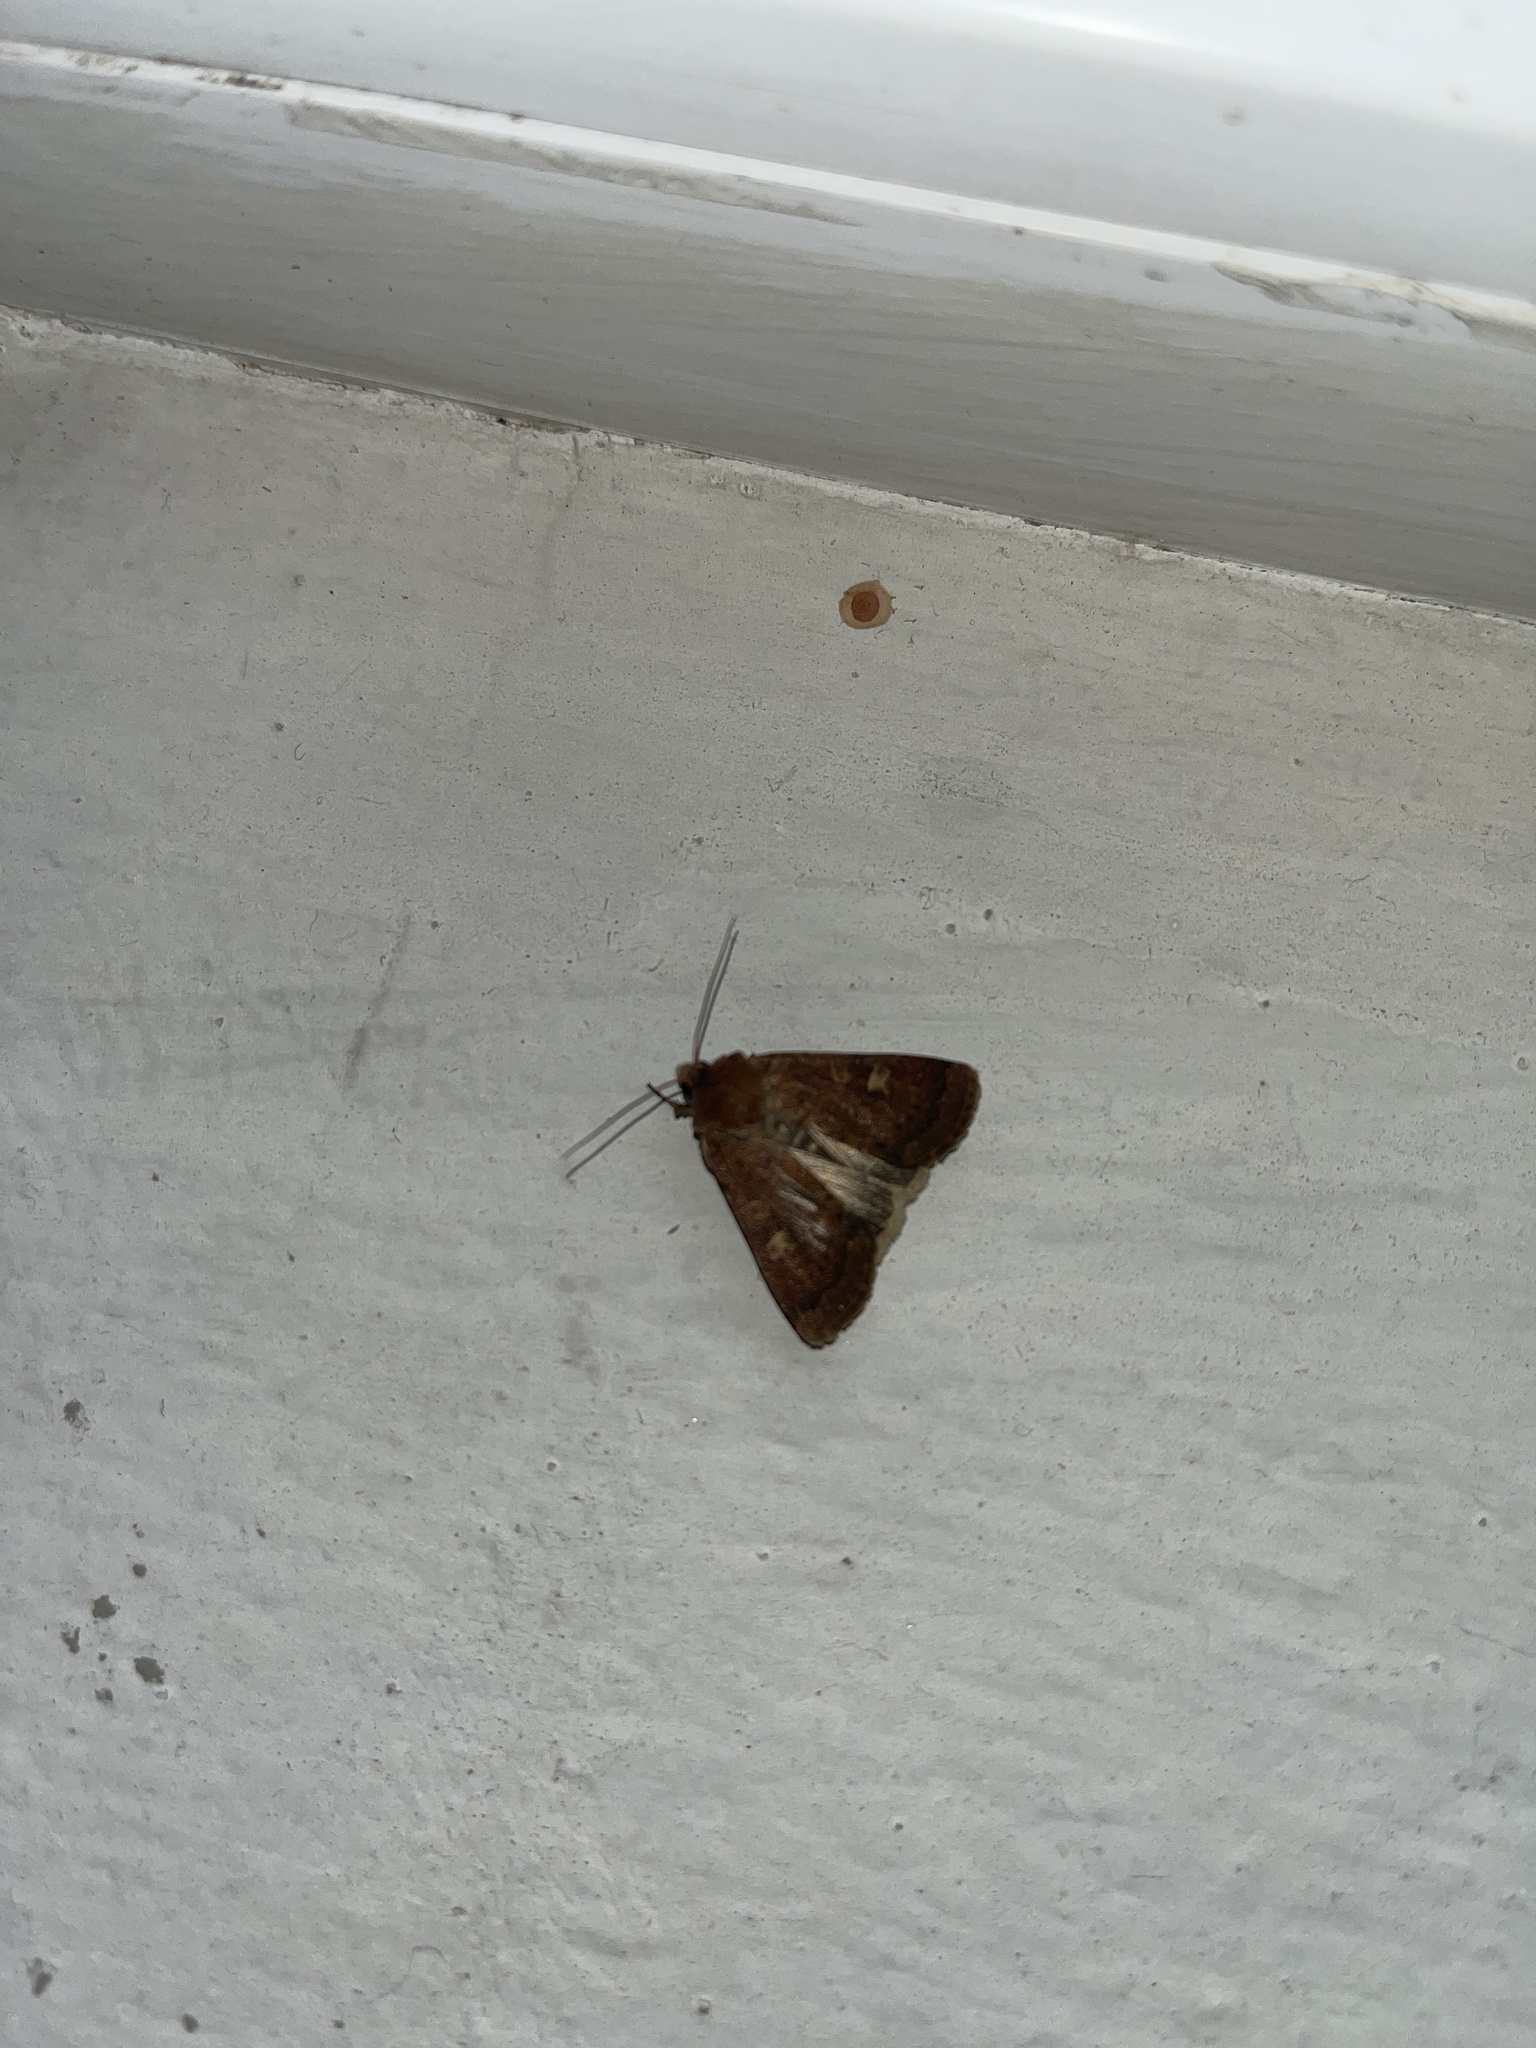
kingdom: Animalia
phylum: Arthropoda
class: Insecta
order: Lepidoptera
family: Noctuidae
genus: Xestia
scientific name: Xestia xanthographa
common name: Square-spot rustic
